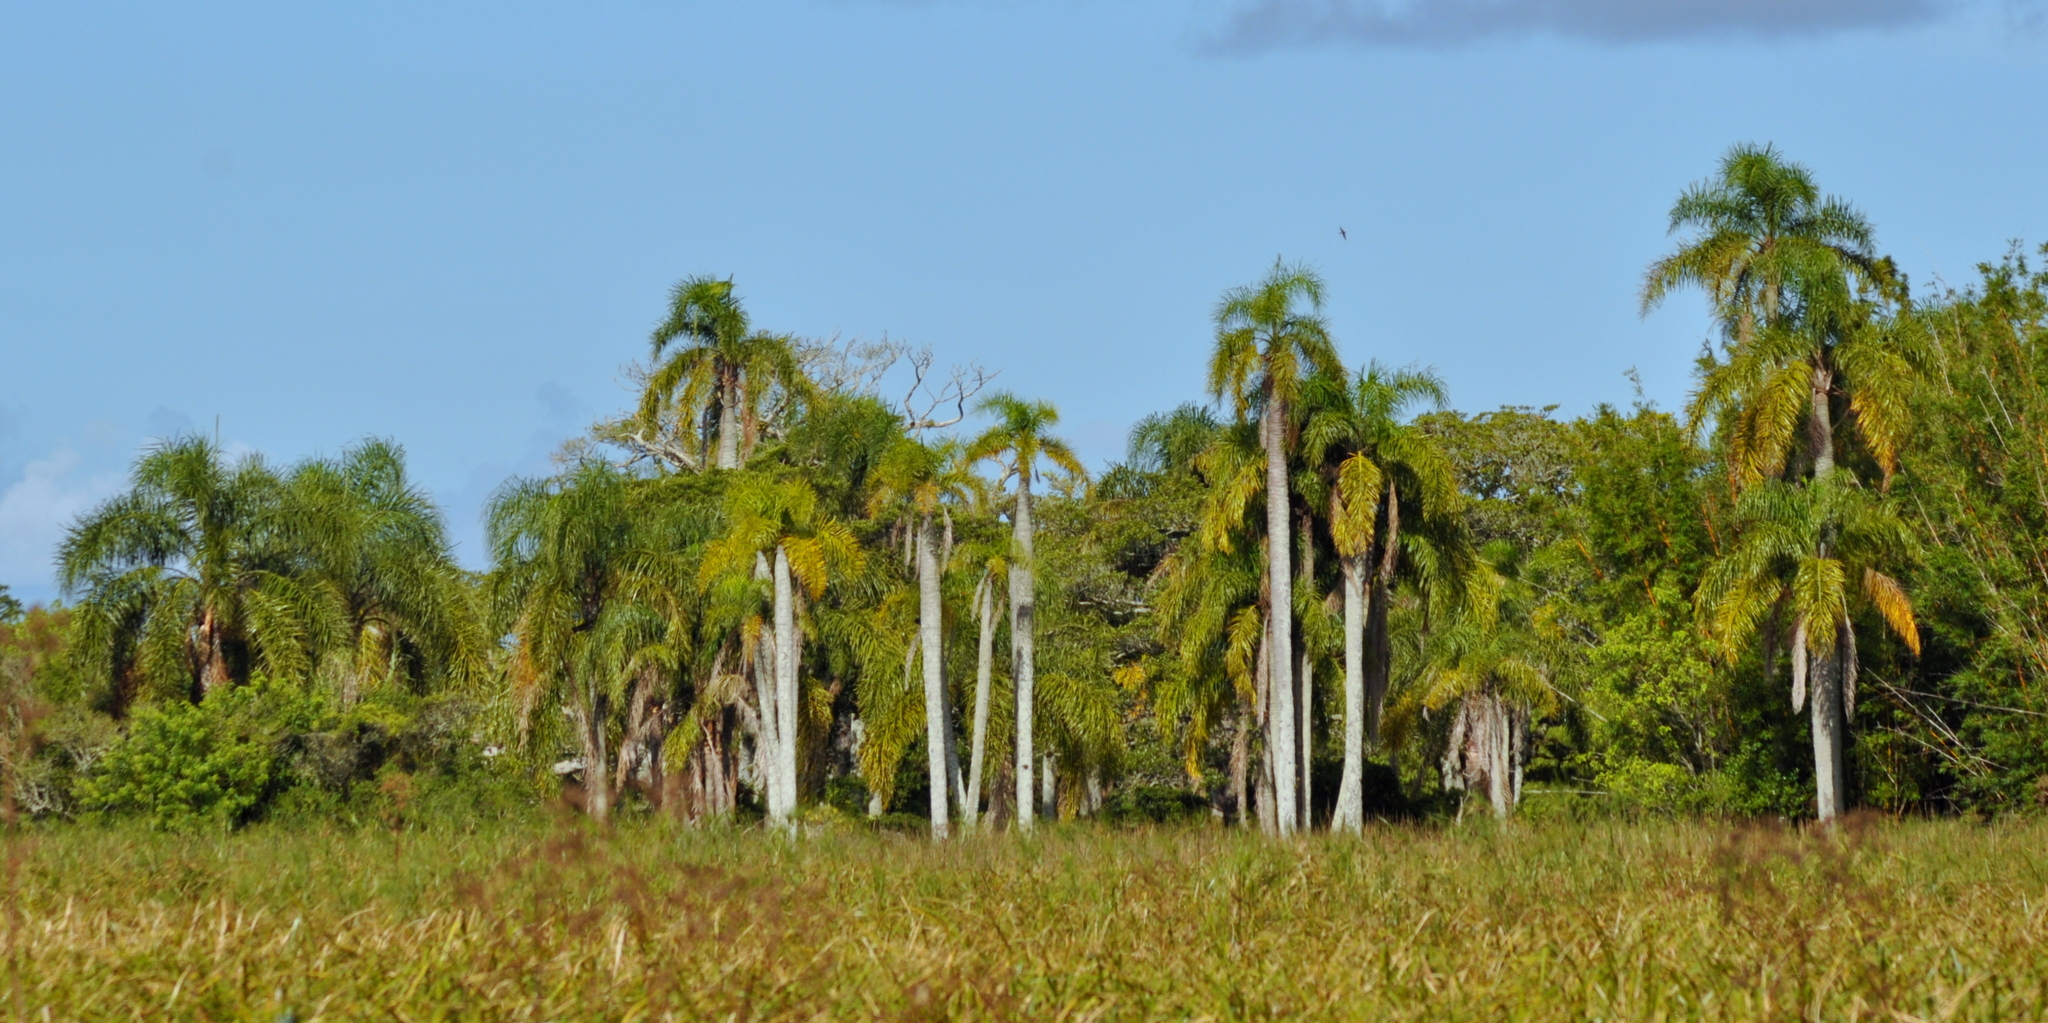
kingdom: Plantae
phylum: Tracheophyta
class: Liliopsida
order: Arecales
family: Arecaceae
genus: Syagrus
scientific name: Syagrus romanzoffiana
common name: Queen palm
